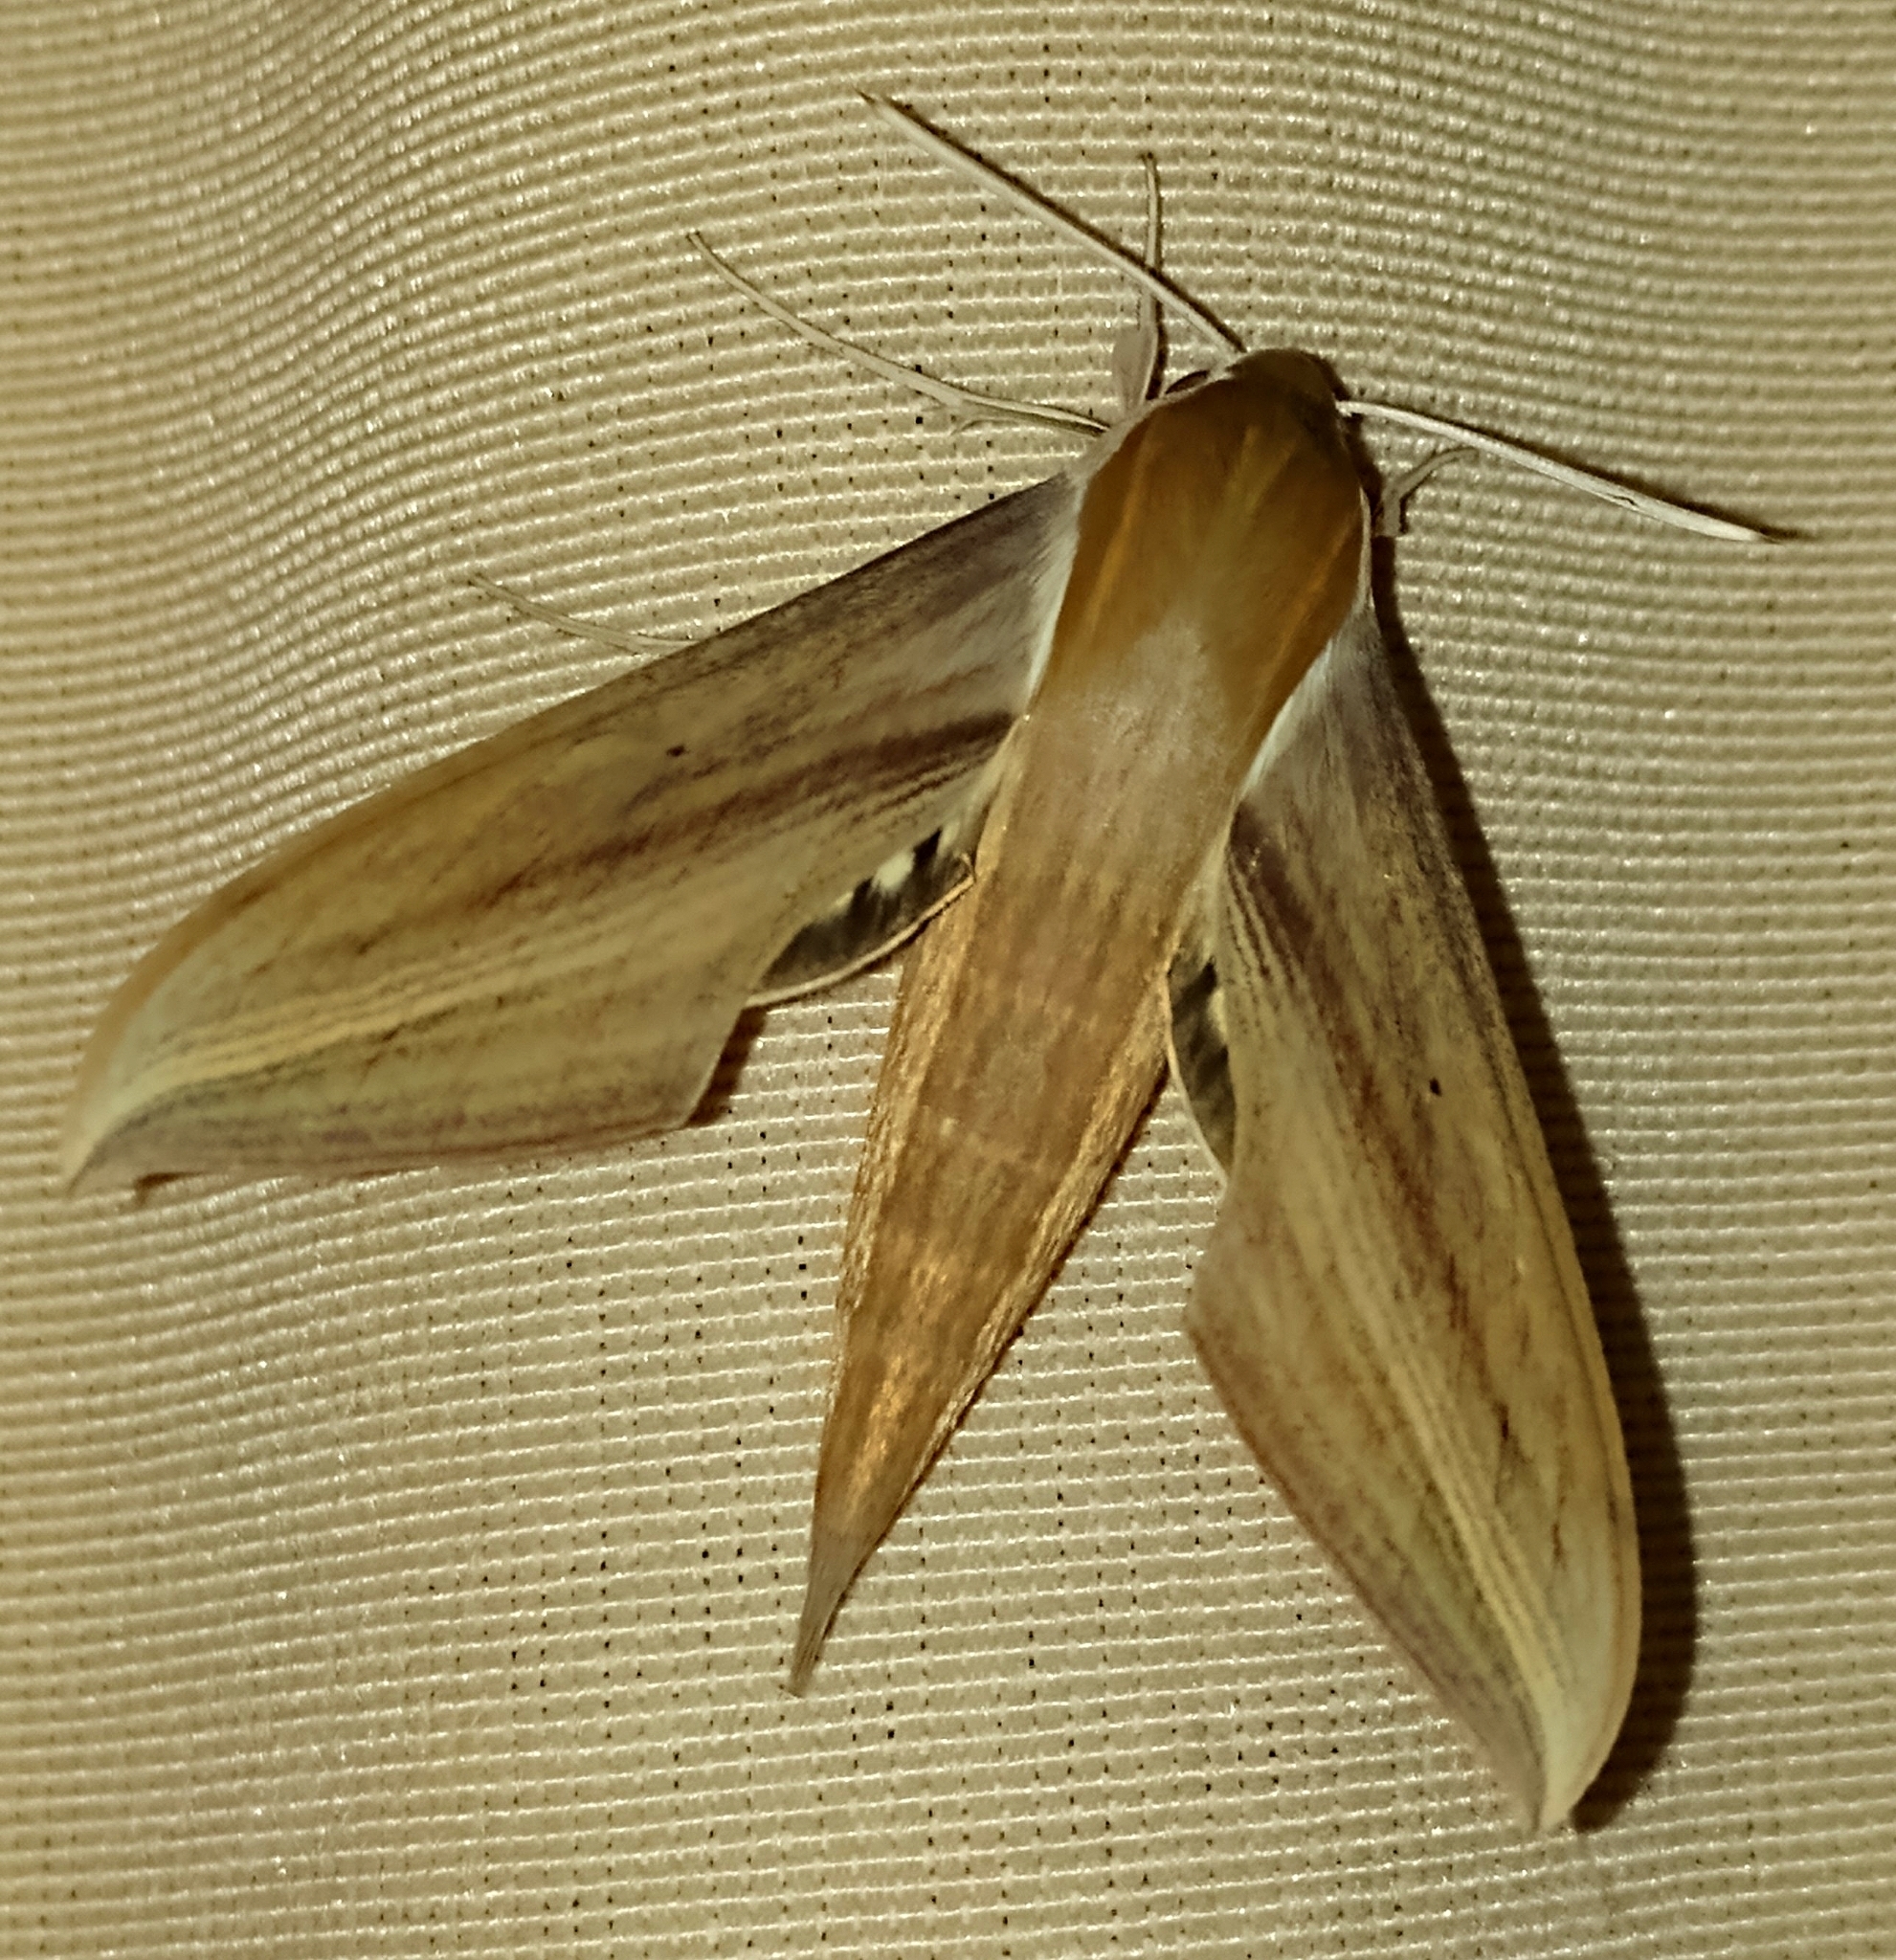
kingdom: Animalia
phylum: Arthropoda
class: Insecta
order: Lepidoptera
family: Sphingidae
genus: Xylophanes
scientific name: Xylophanes tersa
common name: Tersa sphinx
